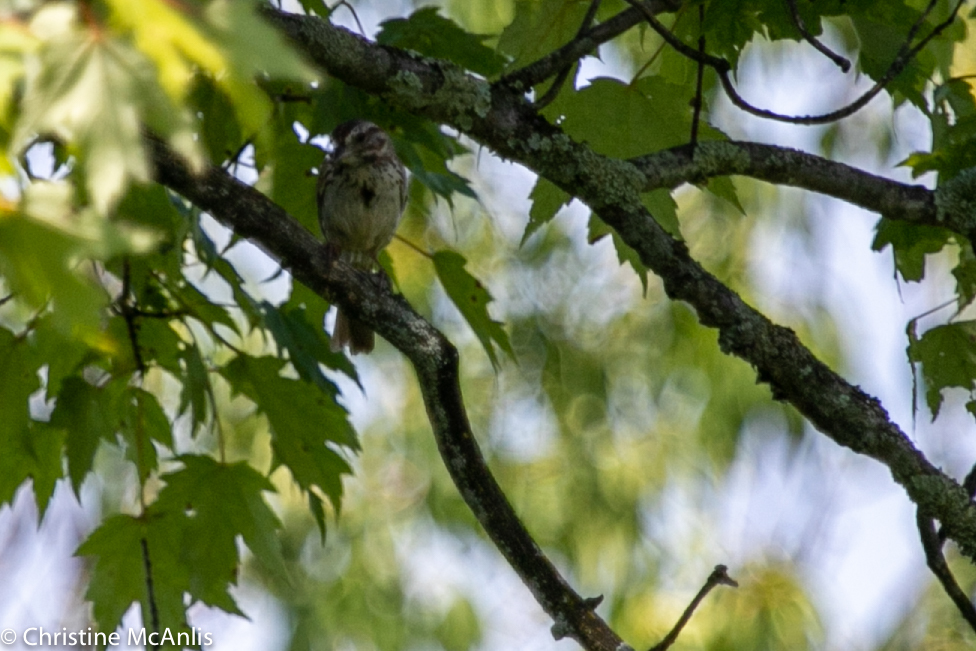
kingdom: Animalia
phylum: Chordata
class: Aves
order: Passeriformes
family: Passerellidae
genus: Melospiza
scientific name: Melospiza melodia
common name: Song sparrow
